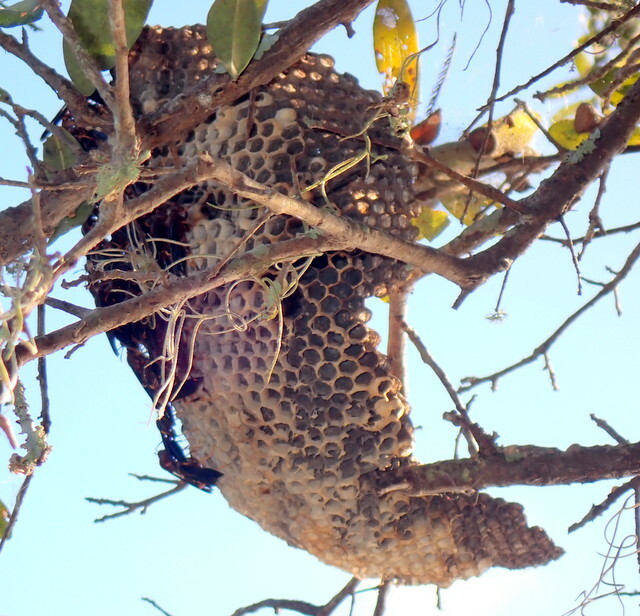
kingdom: Animalia
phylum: Arthropoda
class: Insecta
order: Hymenoptera
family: Eumenidae
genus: Polistes
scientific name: Polistes annularis
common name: Ringed paper wasp
